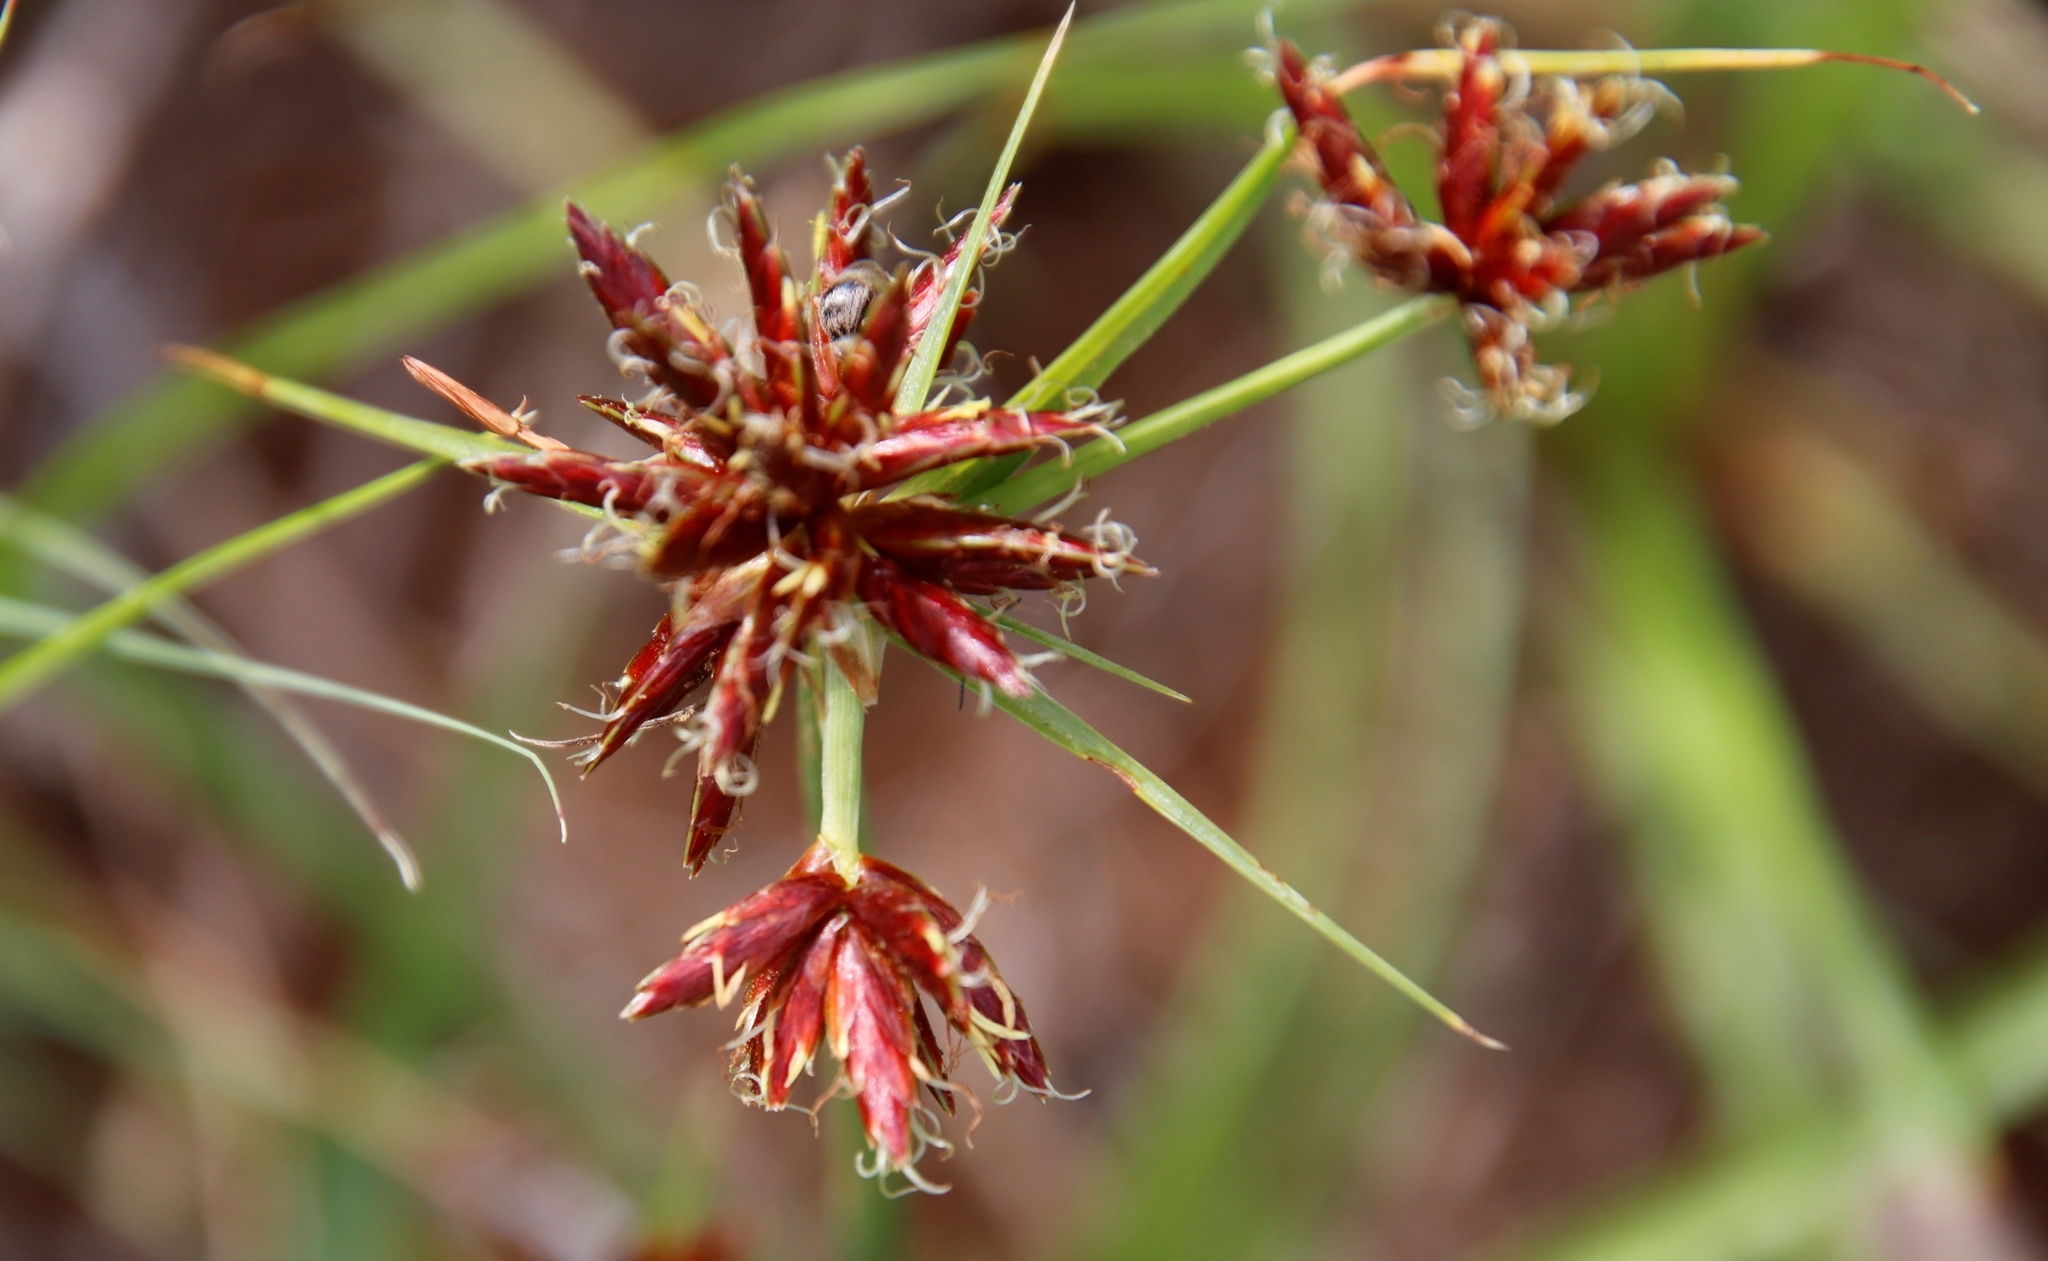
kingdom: Plantae
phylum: Tracheophyta
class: Liliopsida
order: Poales
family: Cyperaceae
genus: Cyperus
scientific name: Cyperus usitatus
